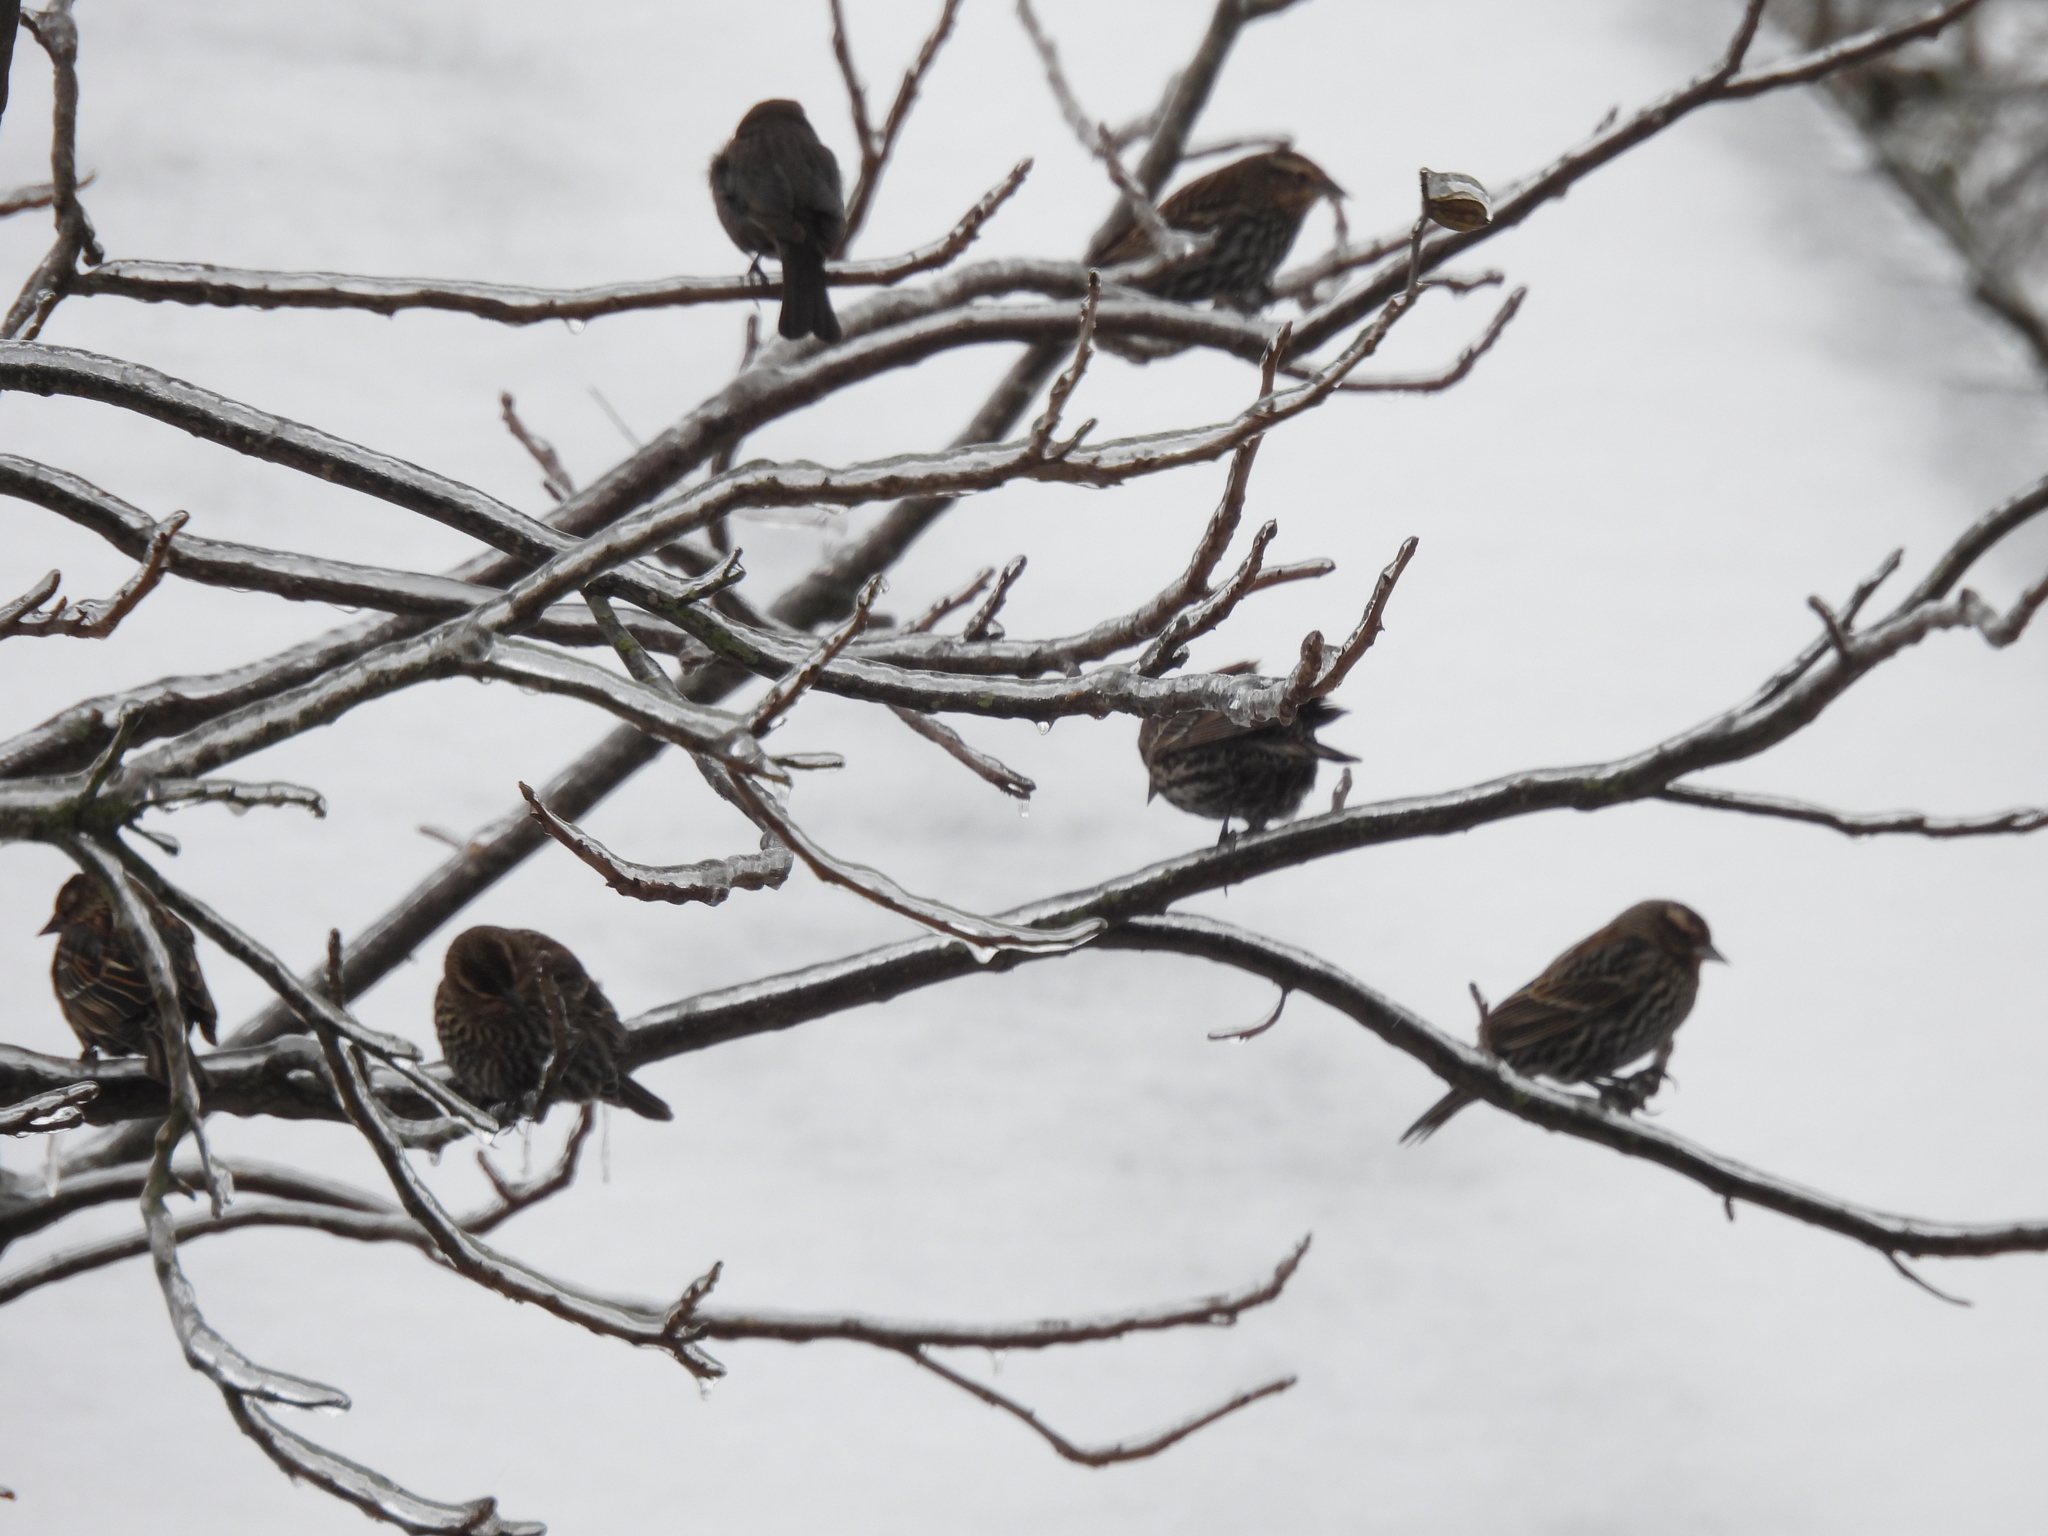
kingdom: Animalia
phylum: Chordata
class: Aves
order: Passeriformes
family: Icteridae
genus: Agelaius
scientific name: Agelaius phoeniceus
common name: Red-winged blackbird
